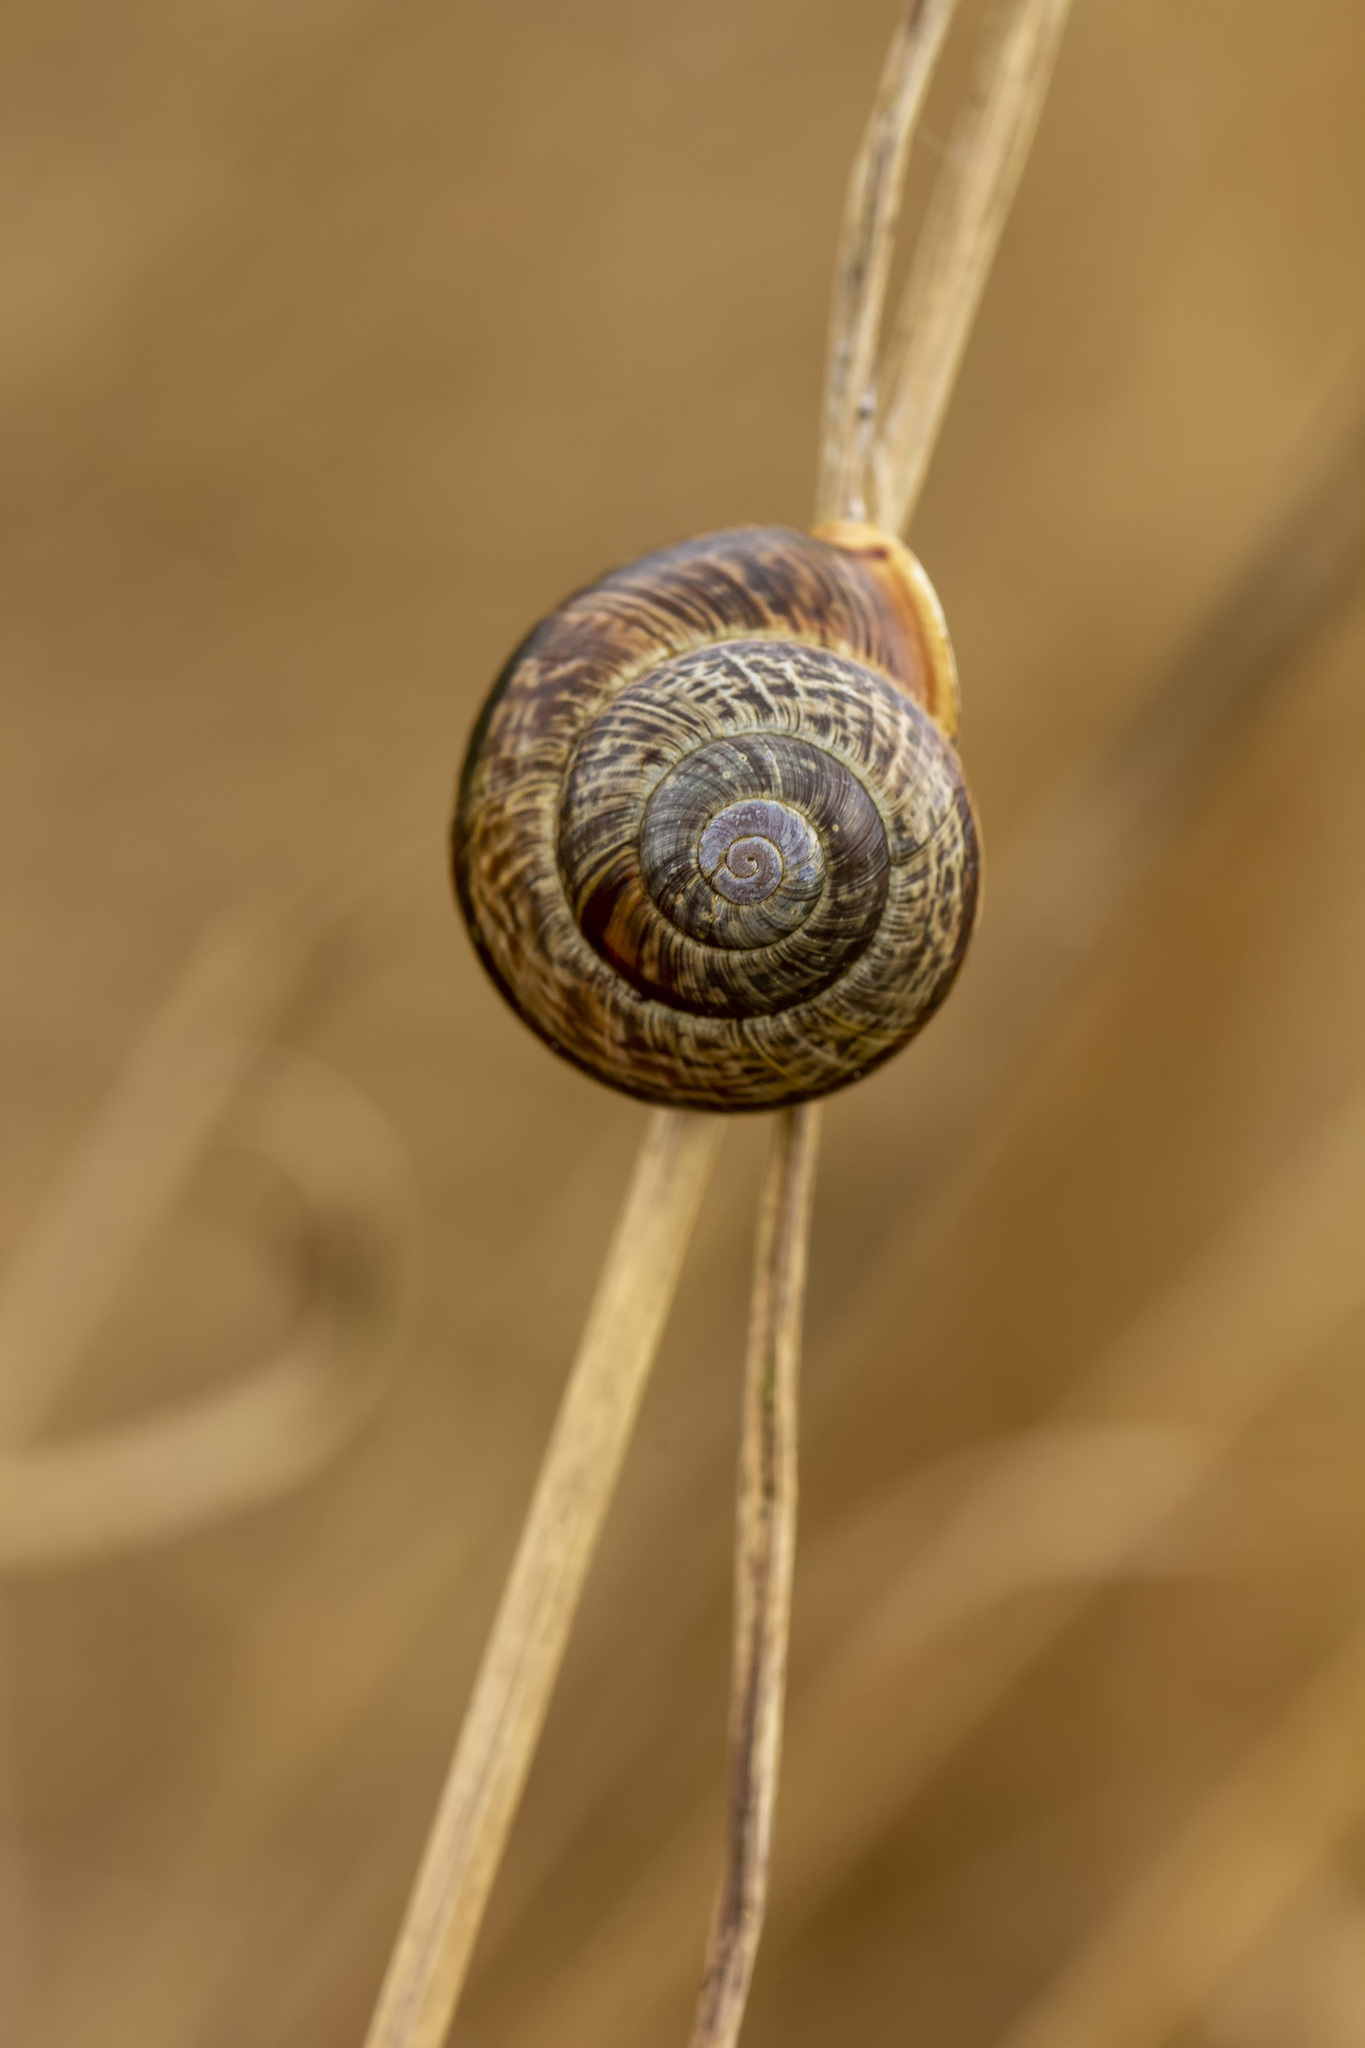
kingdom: Animalia
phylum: Mollusca
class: Gastropoda
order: Stylommatophora
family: Helicidae
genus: Arianta
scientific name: Arianta arbustorum
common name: Copse snail
